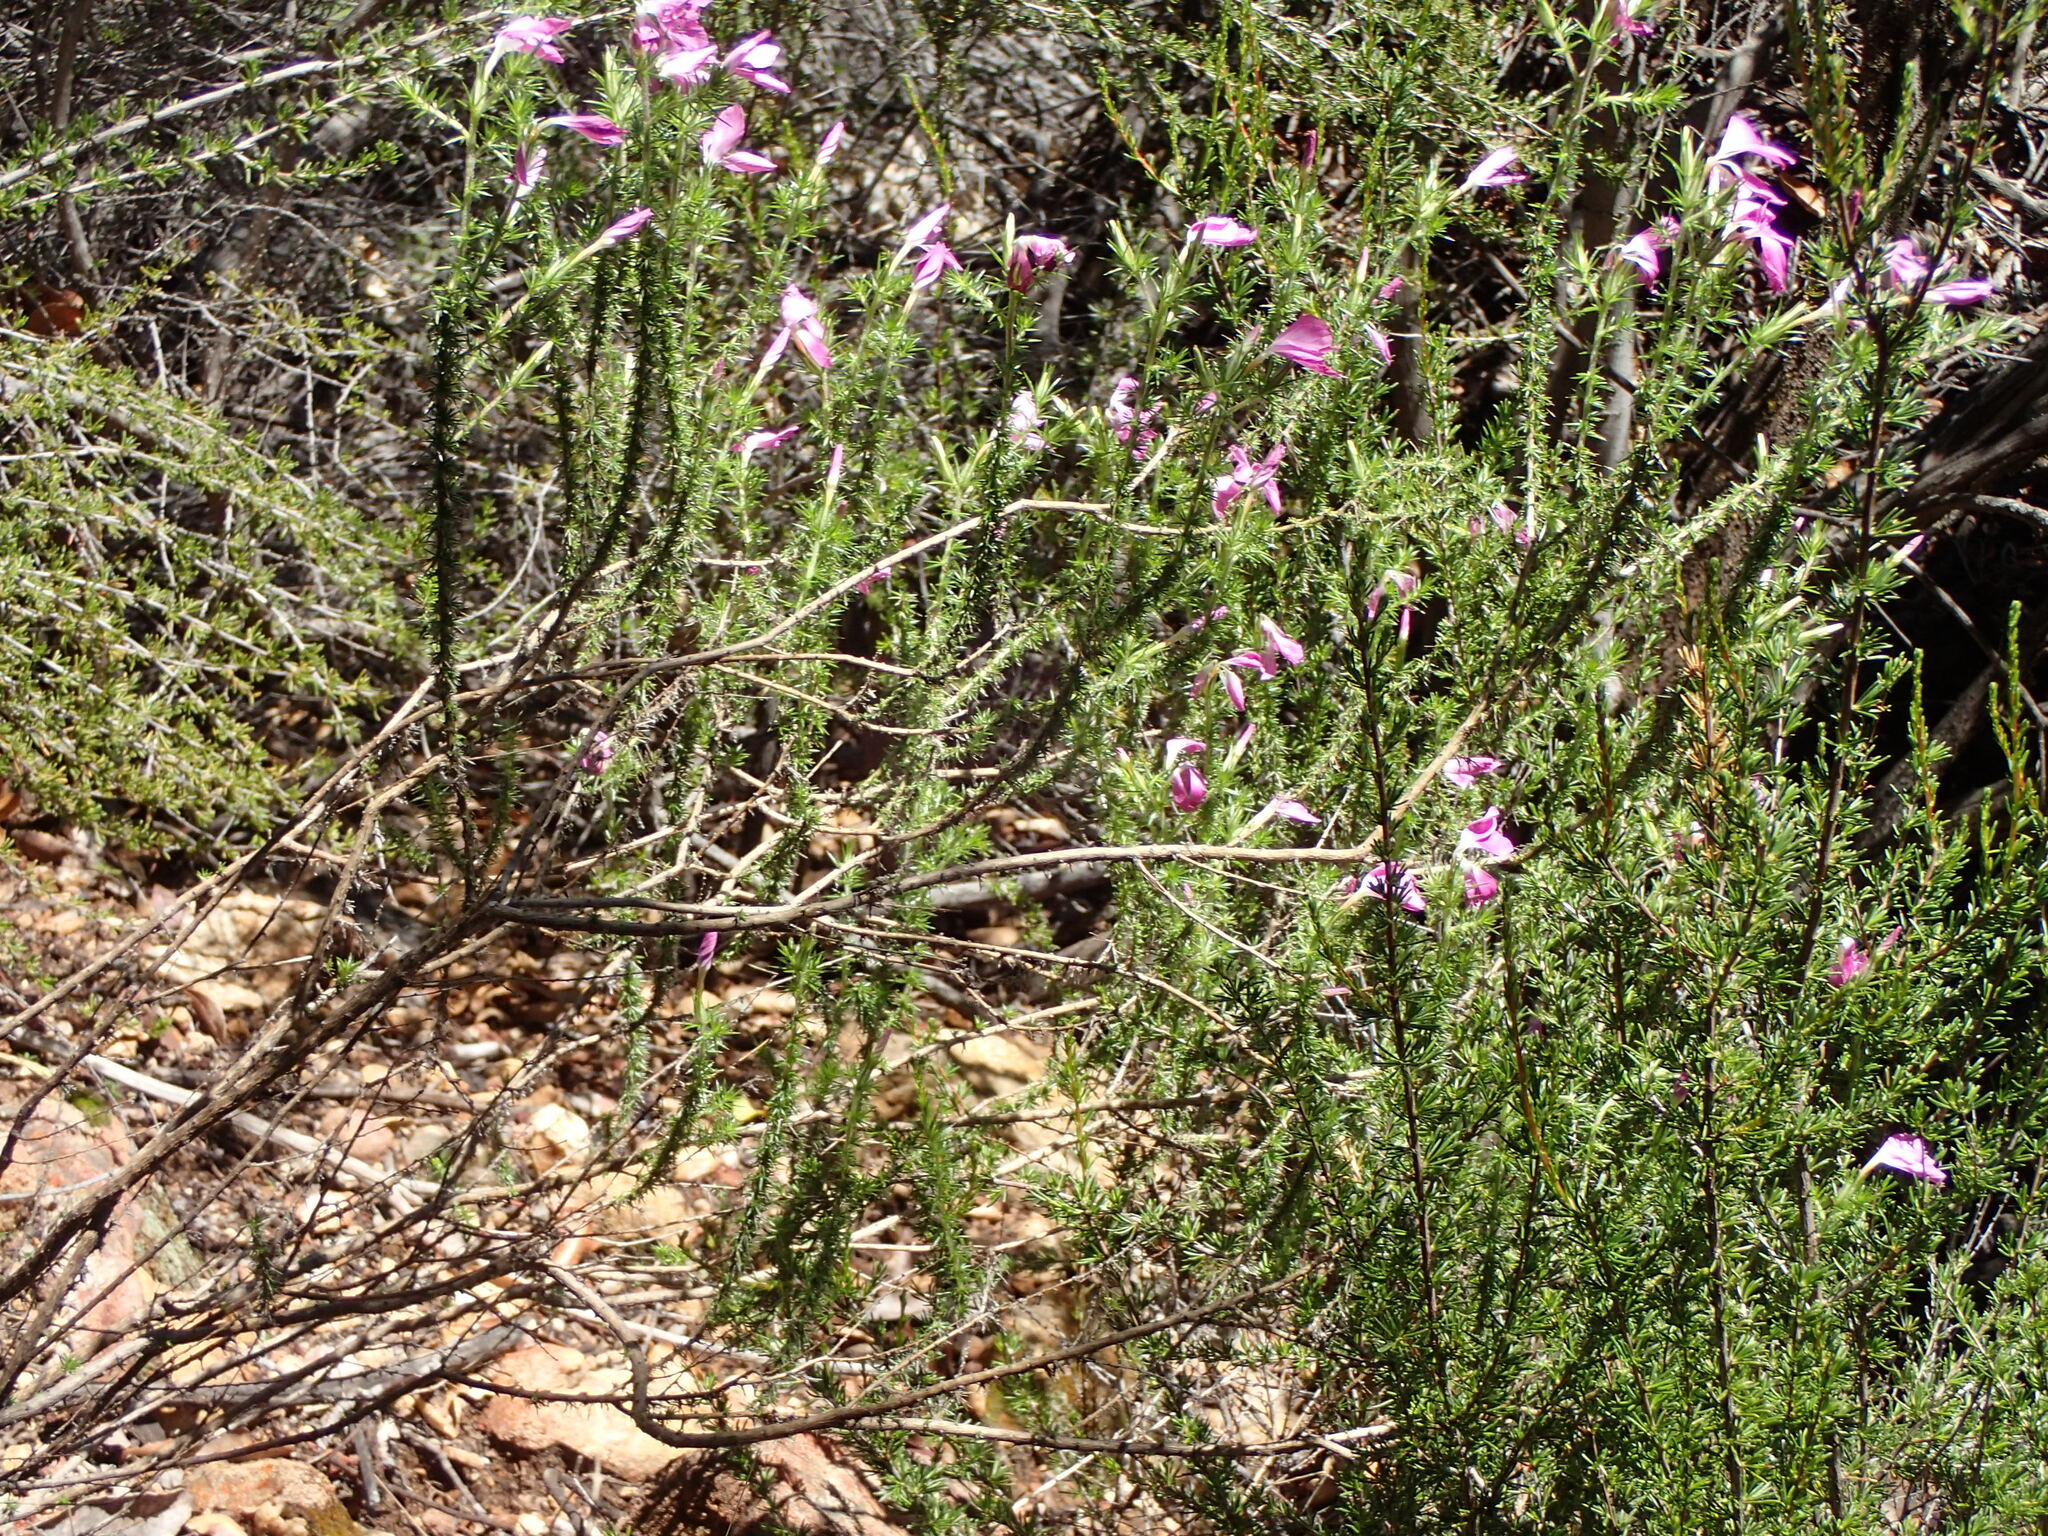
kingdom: Plantae
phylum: Tracheophyta
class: Magnoliopsida
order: Ericales
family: Polemoniaceae
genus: Linanthus
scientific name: Linanthus californicus
